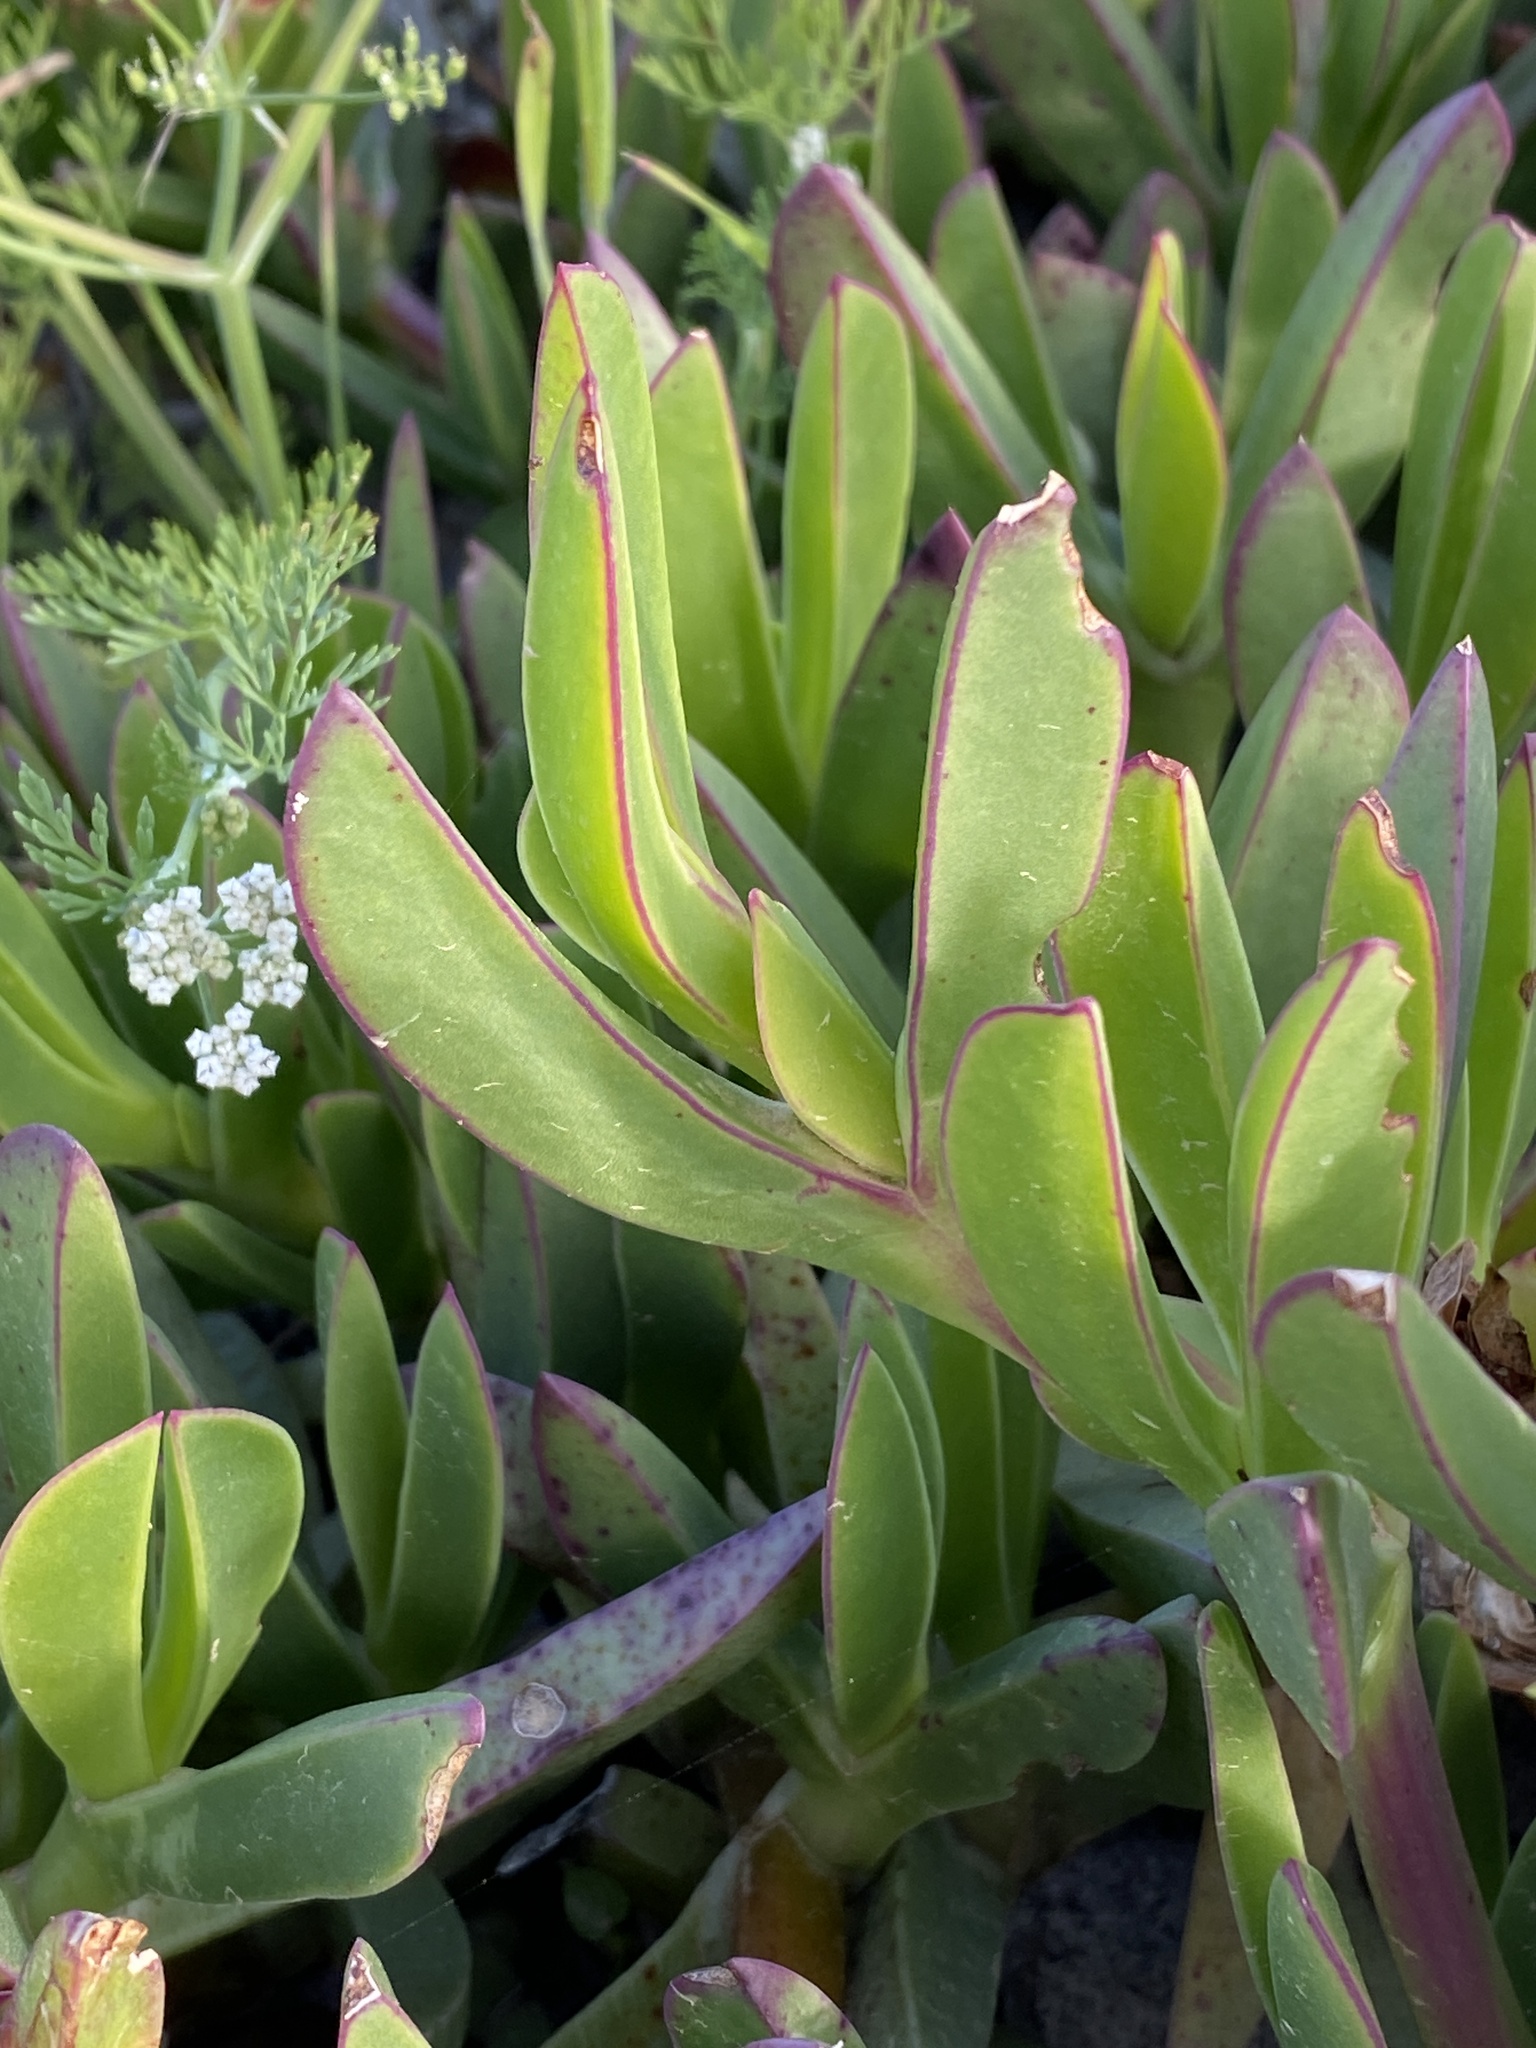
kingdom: Plantae
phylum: Tracheophyta
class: Magnoliopsida
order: Caryophyllales
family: Aizoaceae
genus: Carpobrotus
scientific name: Carpobrotus quadrifidus
